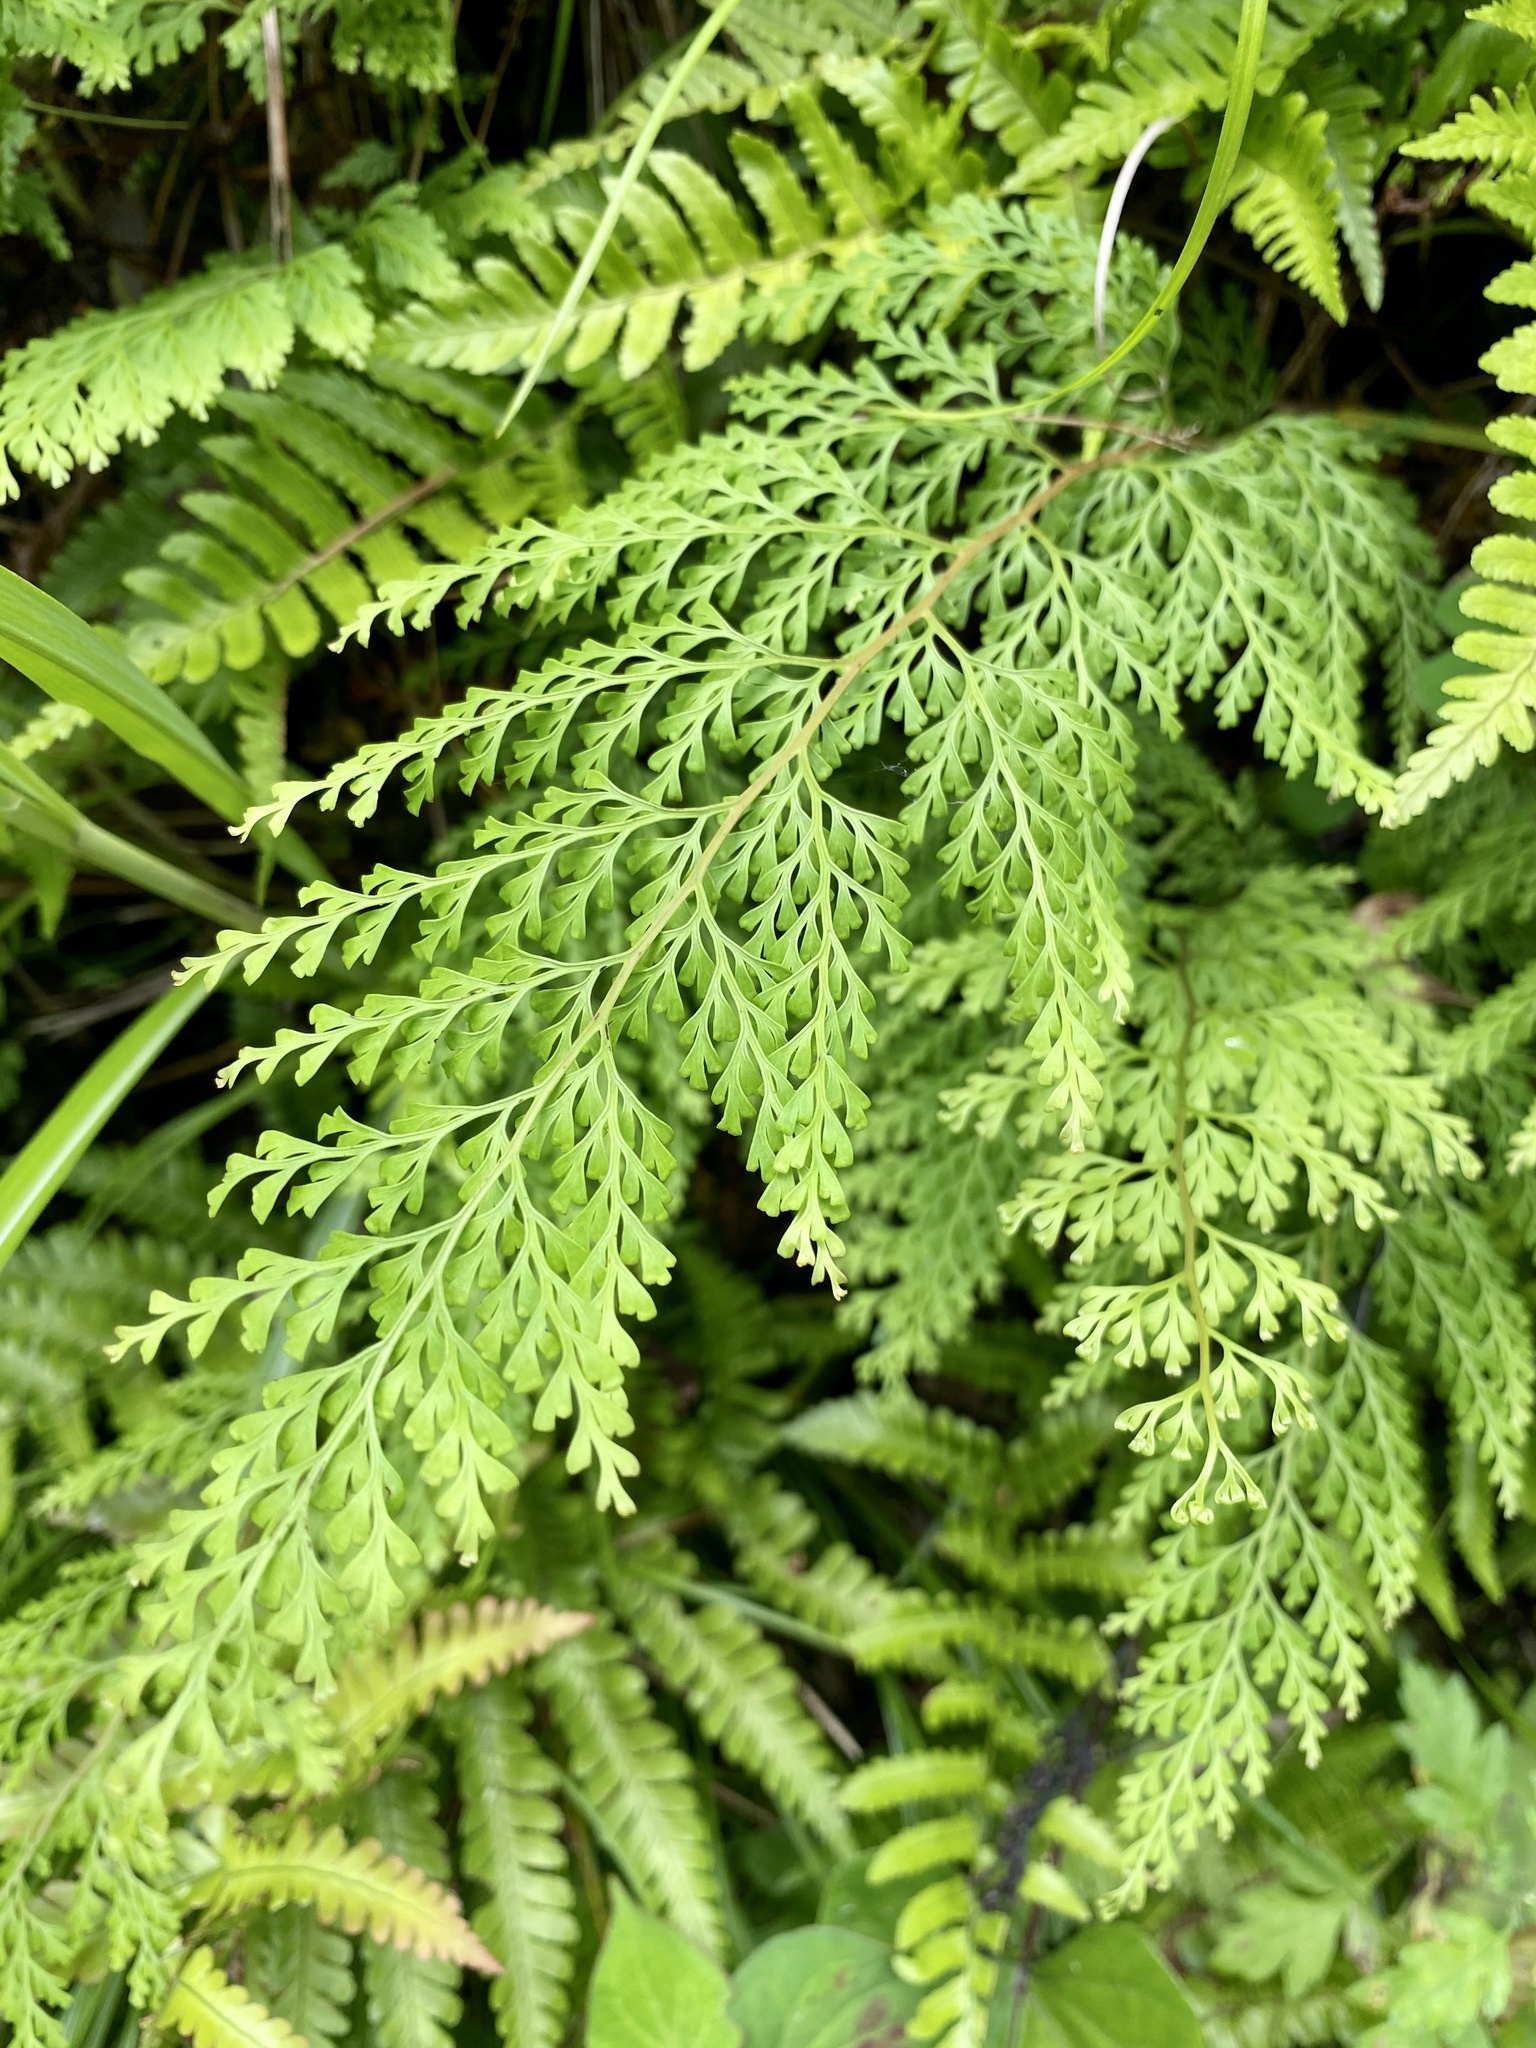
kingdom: Plantae
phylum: Tracheophyta
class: Polypodiopsida
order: Polypodiales
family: Lindsaeaceae
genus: Odontosoria
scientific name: Odontosoria chinensis
